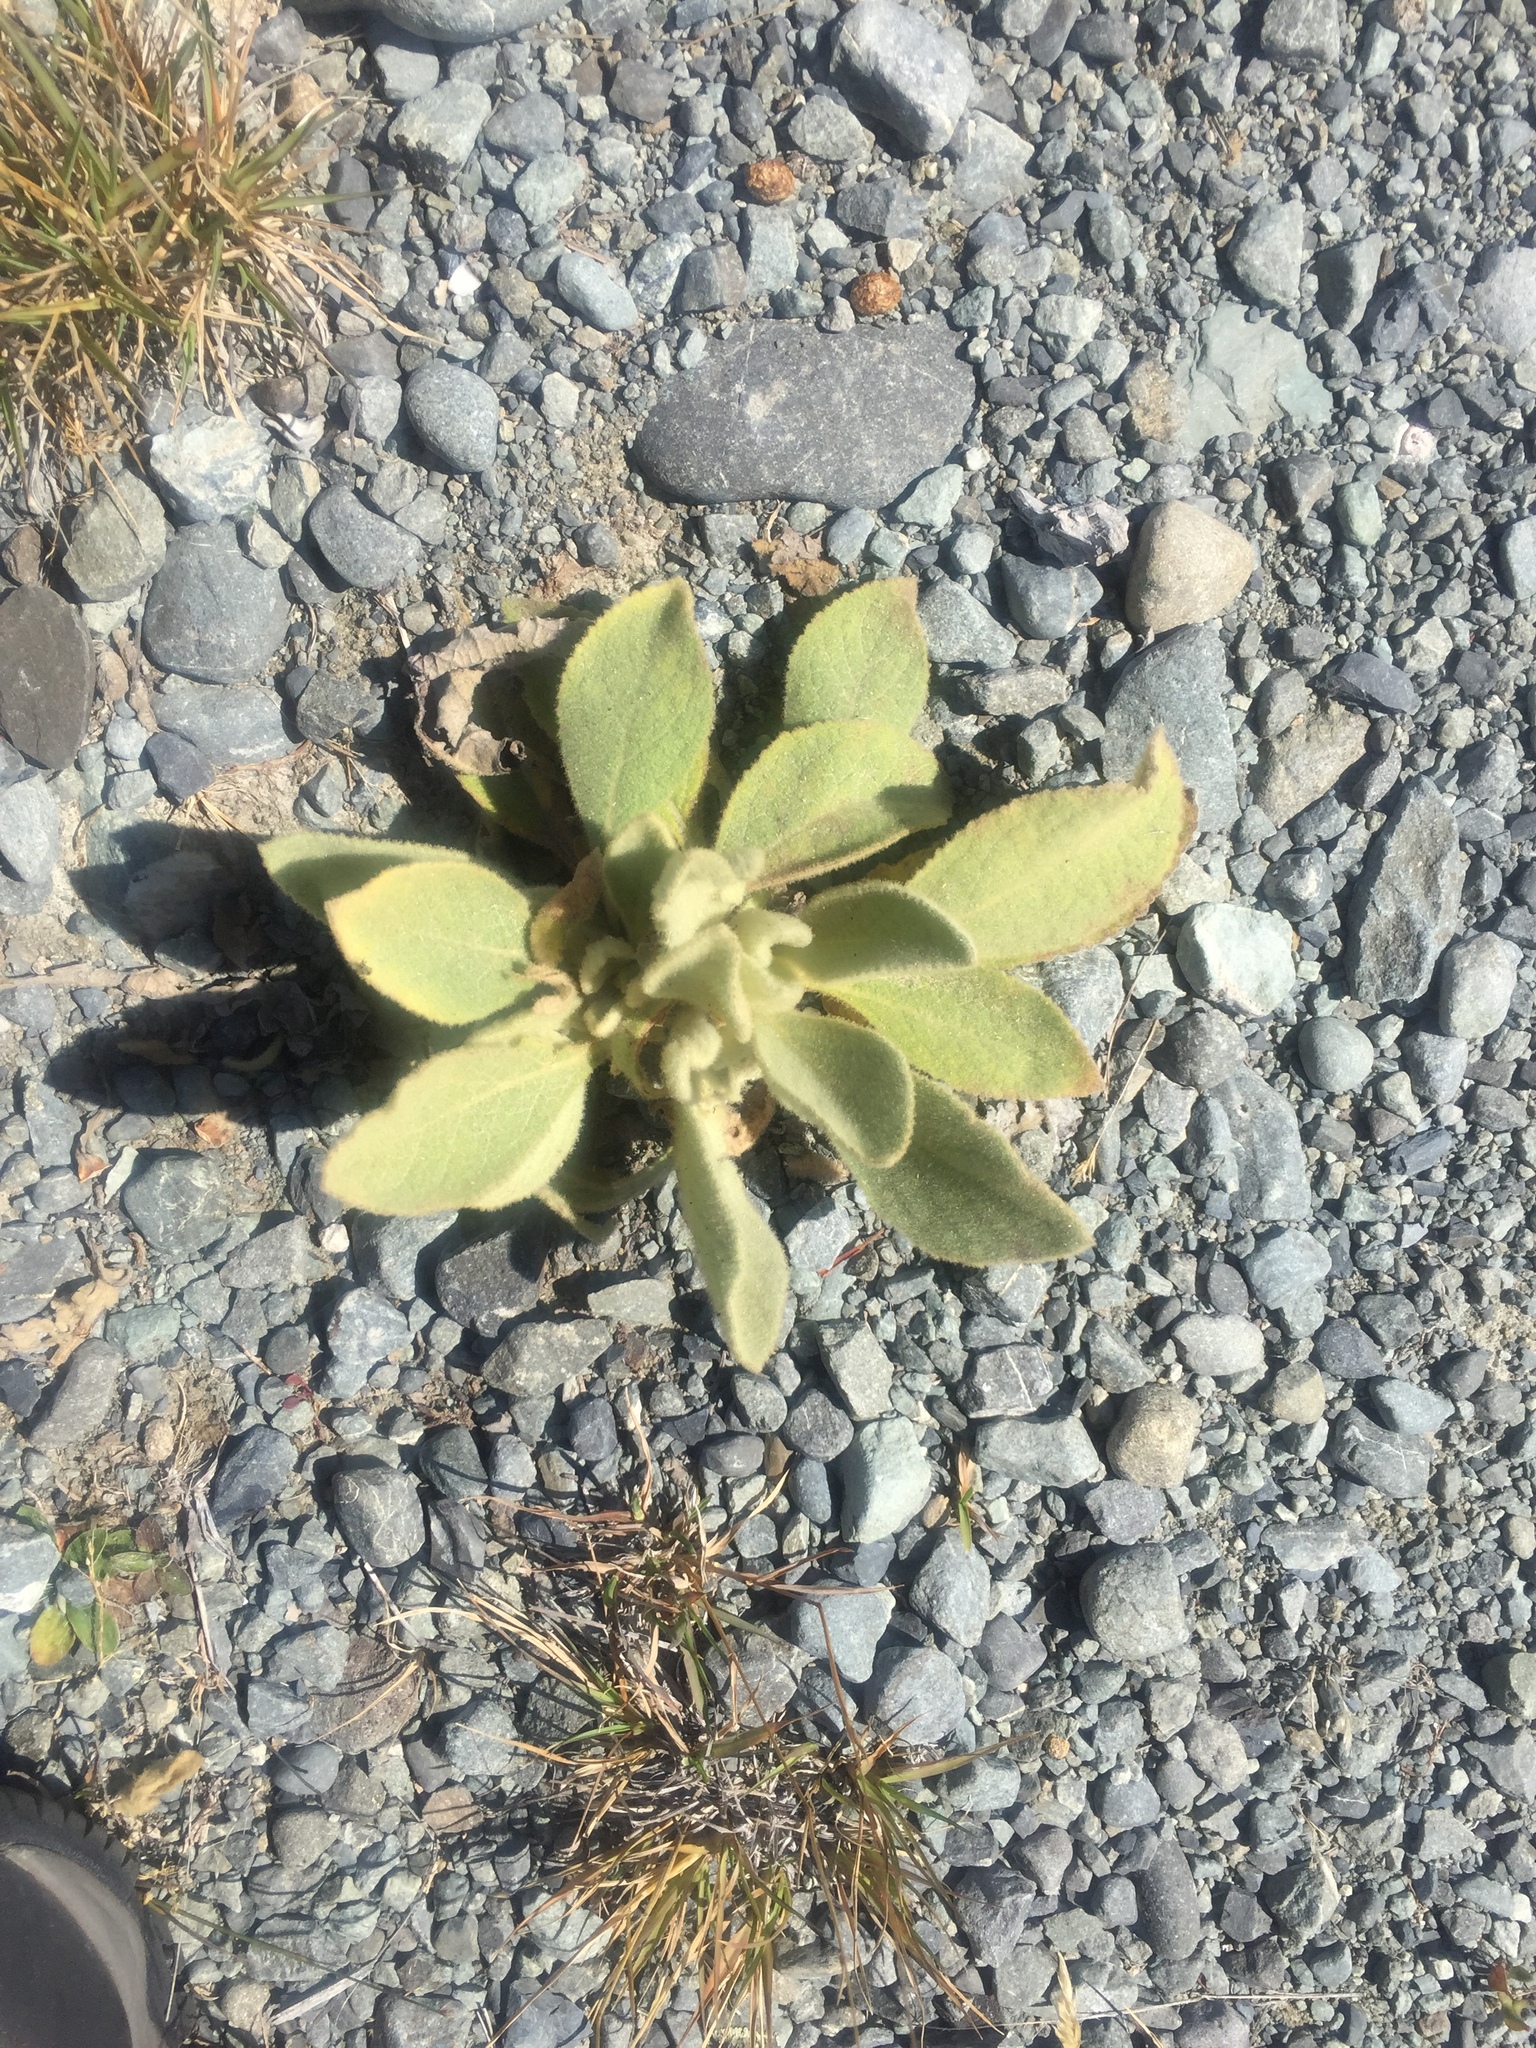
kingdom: Plantae
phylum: Tracheophyta
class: Magnoliopsida
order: Lamiales
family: Scrophulariaceae
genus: Verbascum
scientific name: Verbascum thapsus
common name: Common mullein
